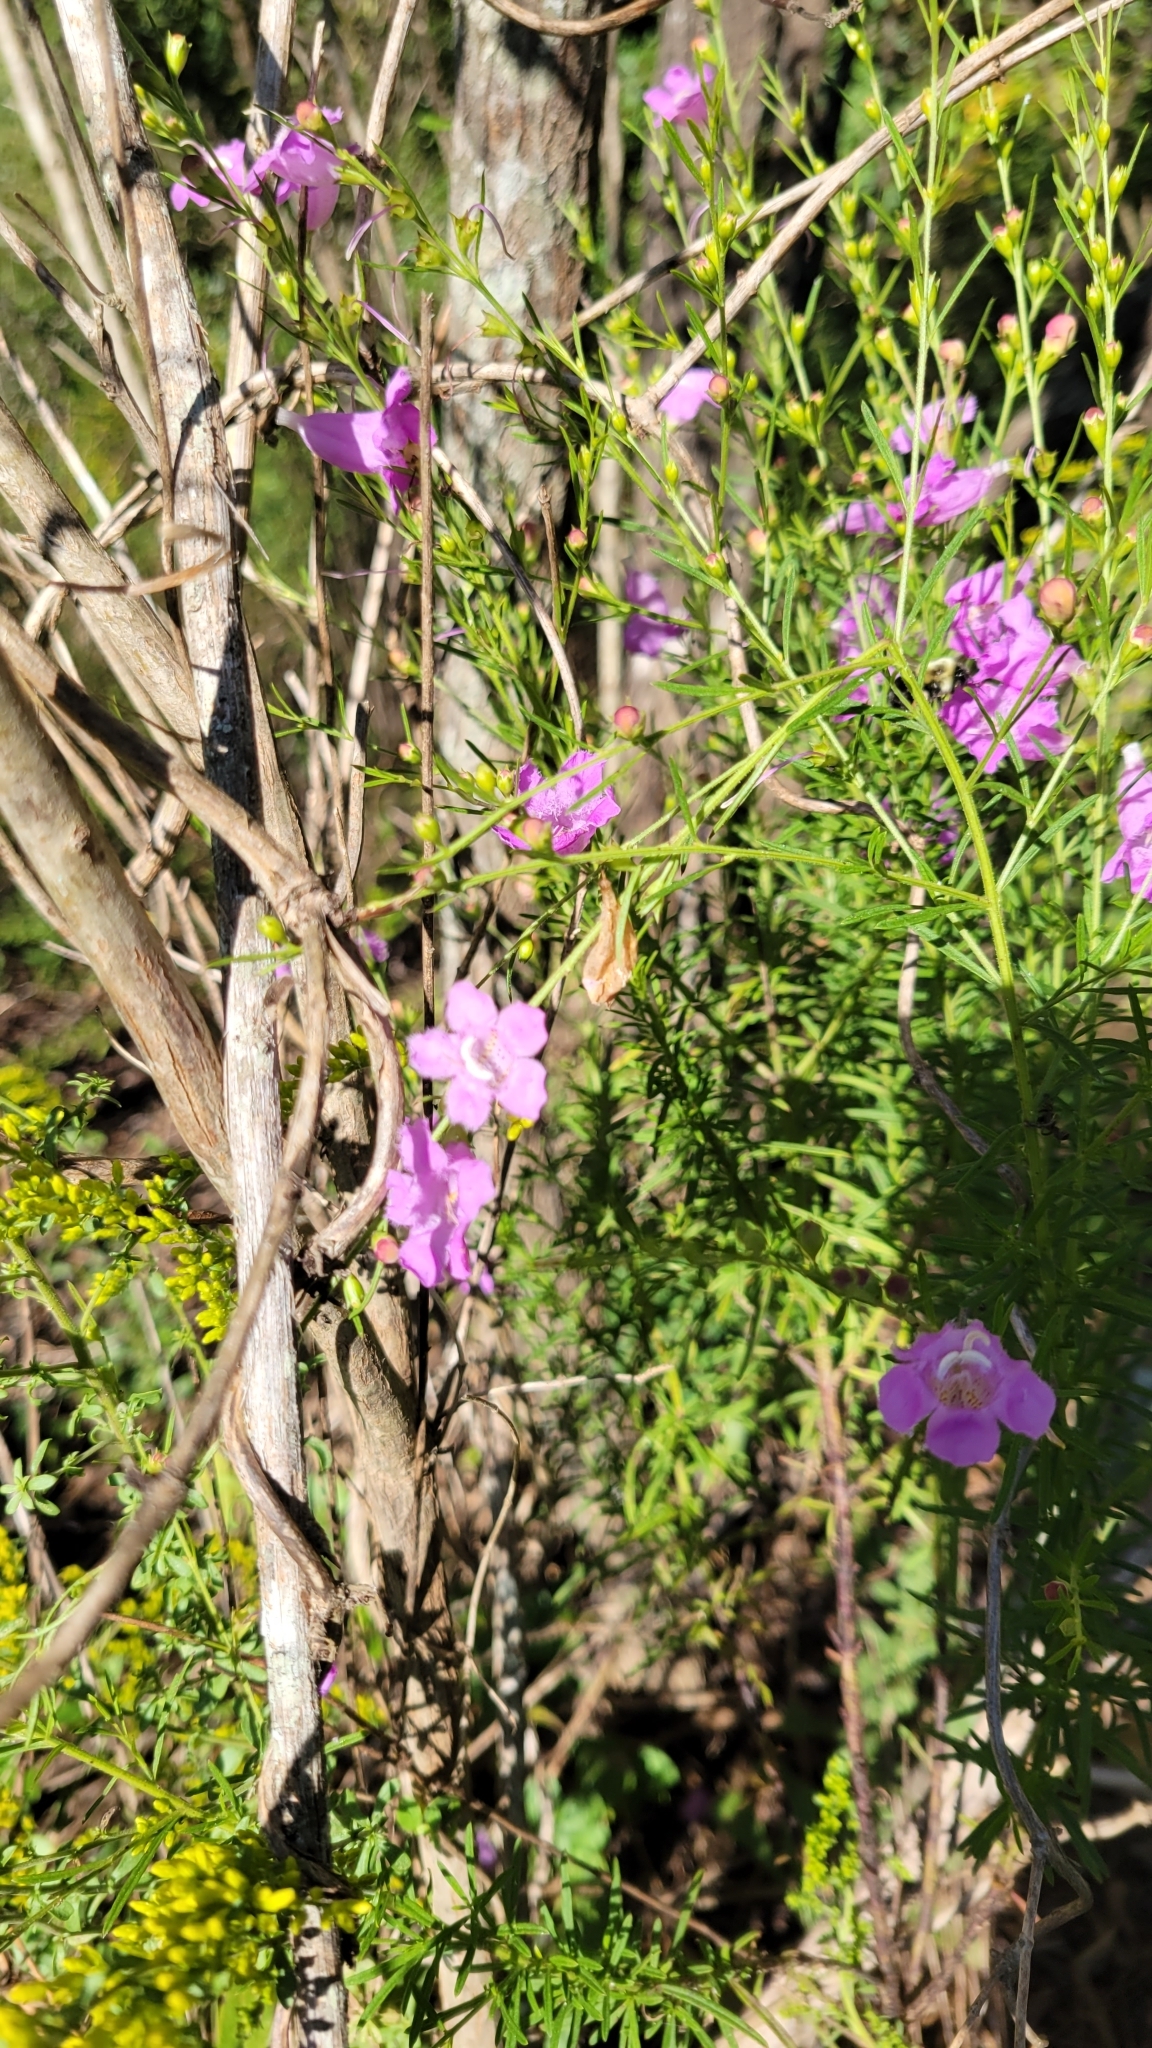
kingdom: Plantae
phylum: Tracheophyta
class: Magnoliopsida
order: Lamiales
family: Orobanchaceae
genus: Agalinis
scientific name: Agalinis purpurea
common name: Purple false foxglove
